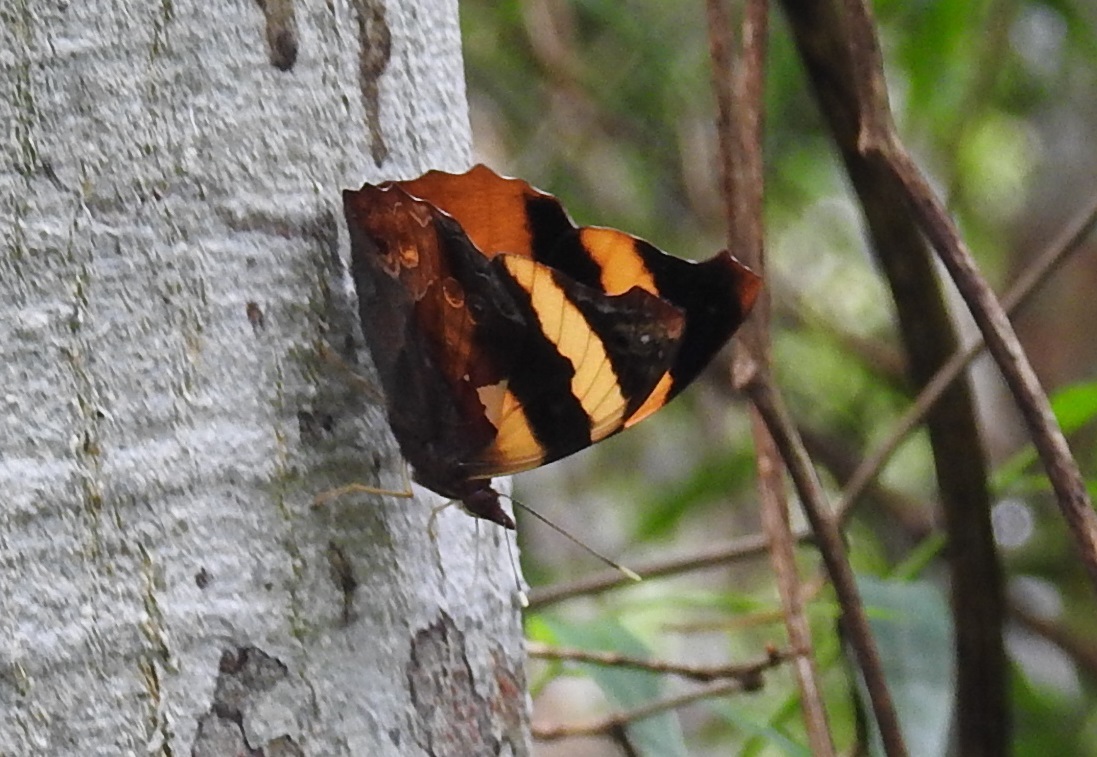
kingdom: Animalia
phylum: Arthropoda
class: Insecta
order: Lepidoptera
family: Nymphalidae
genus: Epiphile
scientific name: Epiphile adrasta
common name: Common banner
